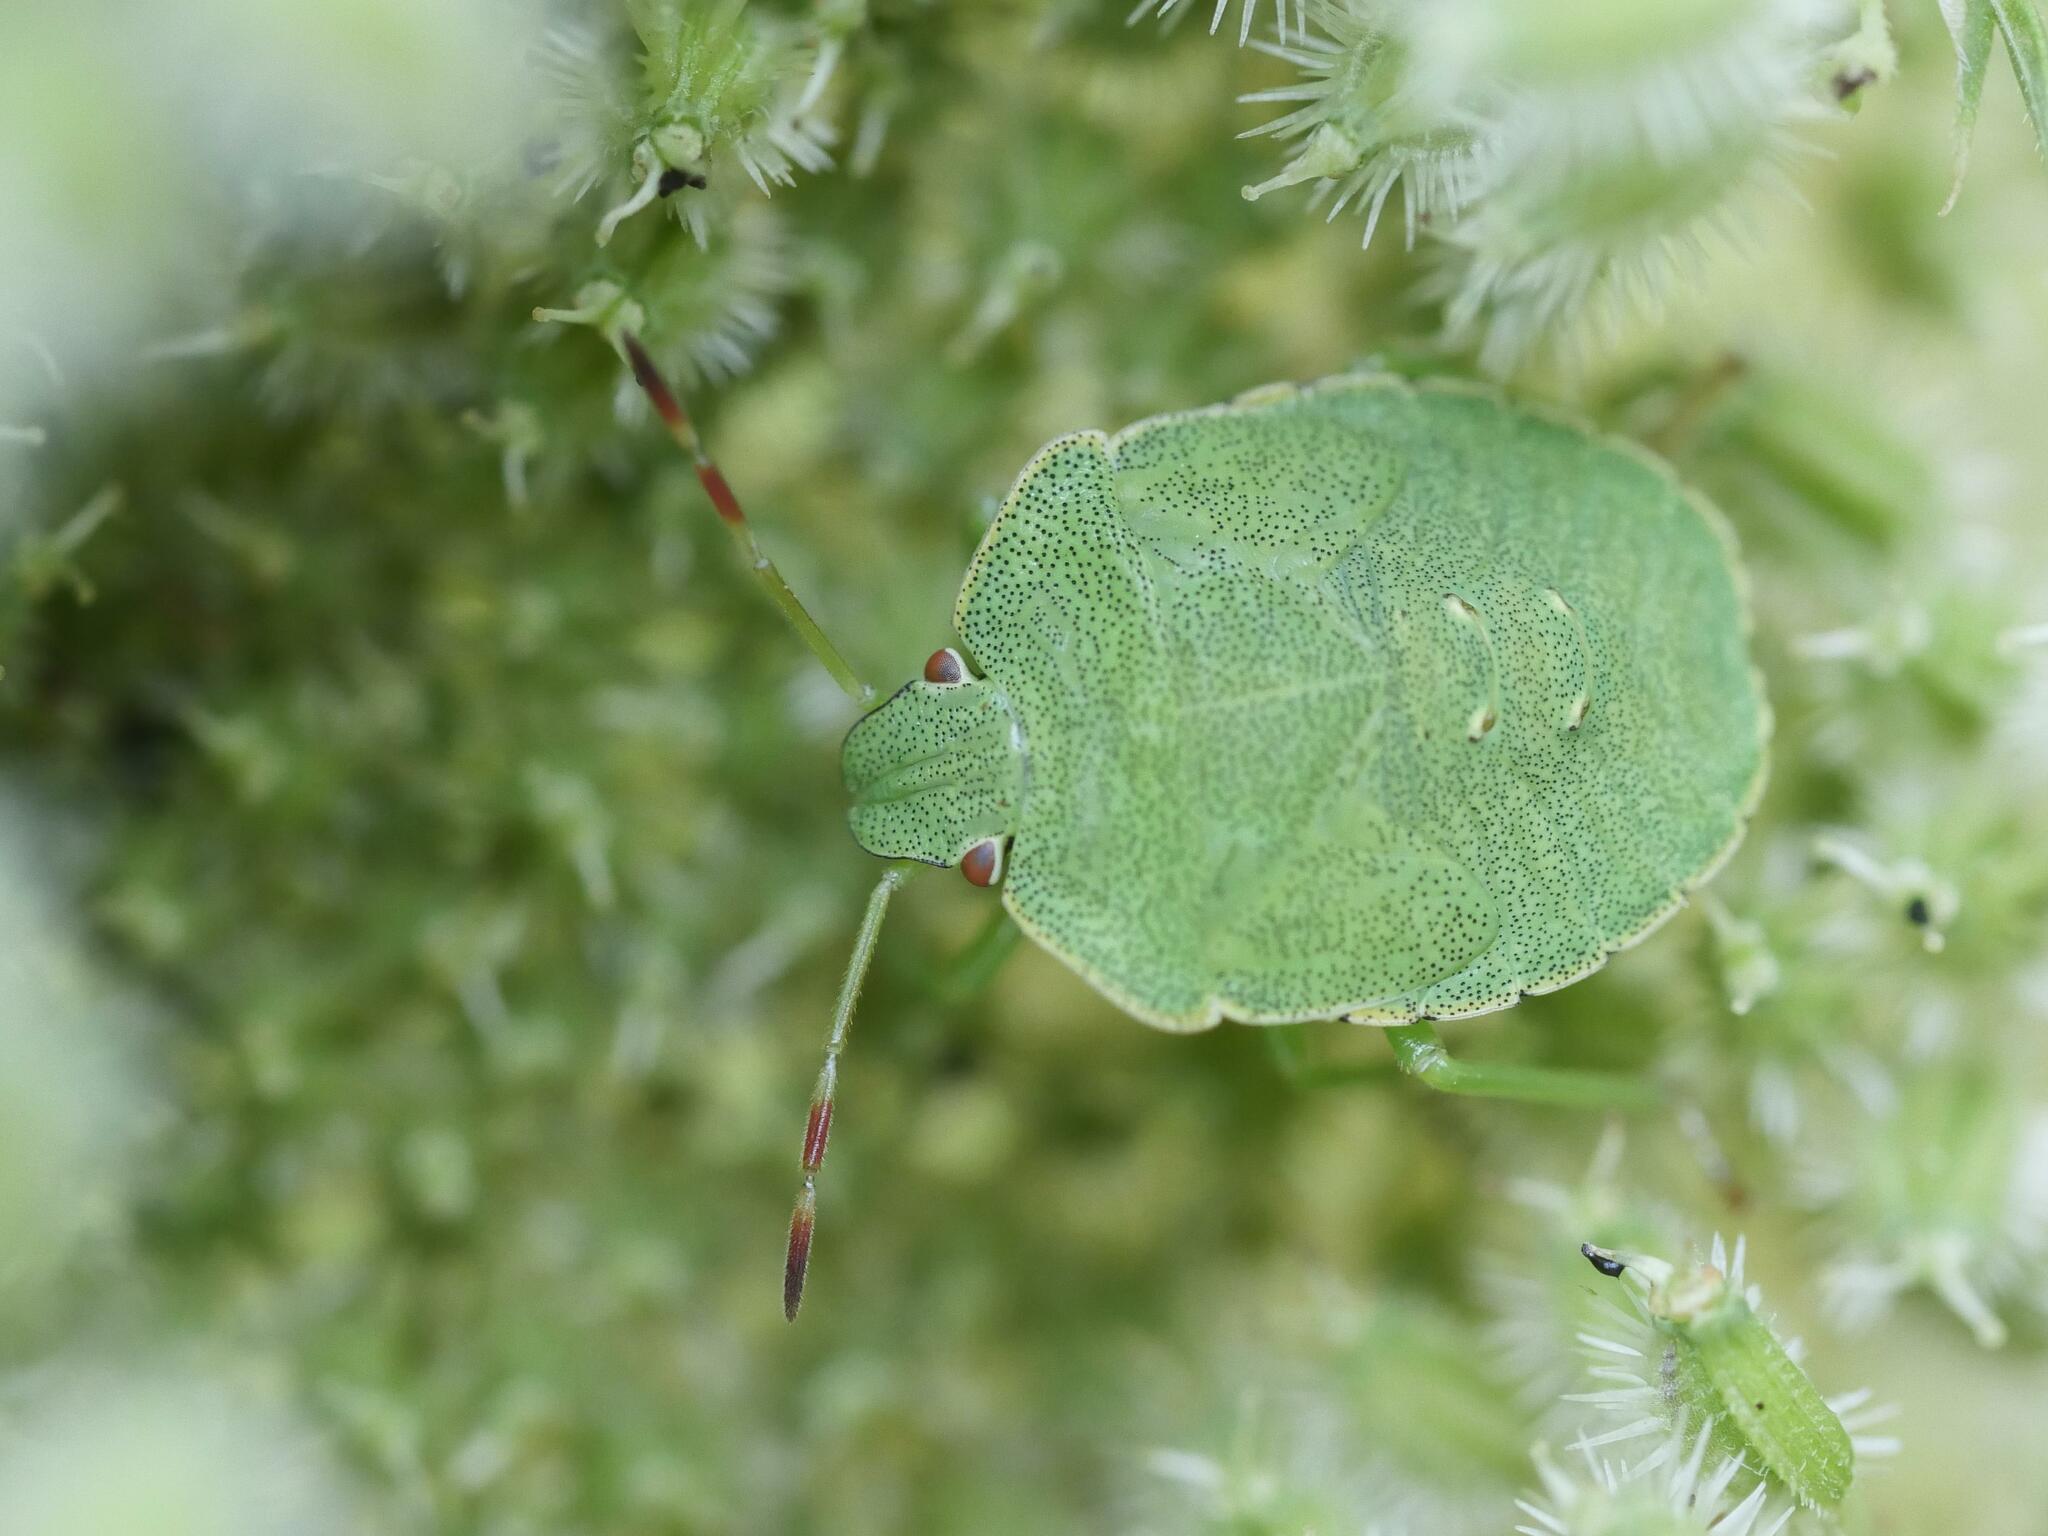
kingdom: Animalia
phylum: Arthropoda
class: Insecta
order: Hemiptera
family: Pentatomidae
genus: Palomena
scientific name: Palomena prasina
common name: Green shieldbug
